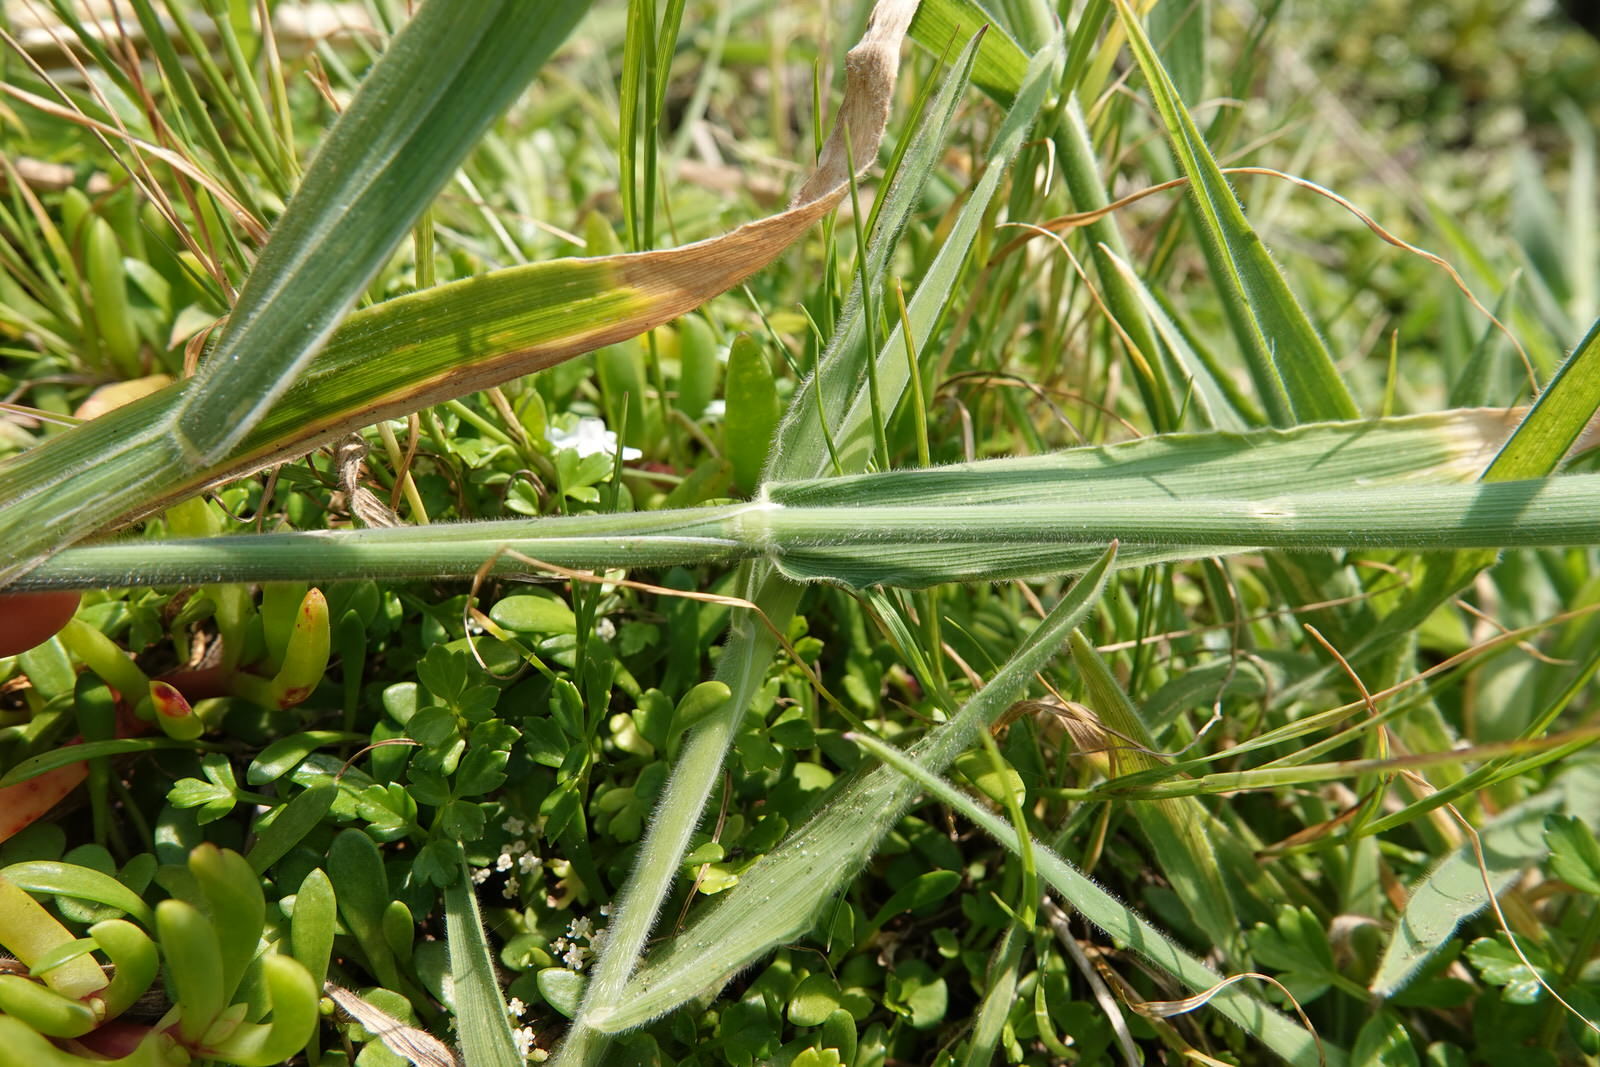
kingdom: Plantae
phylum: Tracheophyta
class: Liliopsida
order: Poales
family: Poaceae
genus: Holcus
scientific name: Holcus lanatus
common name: Yorkshire-fog
